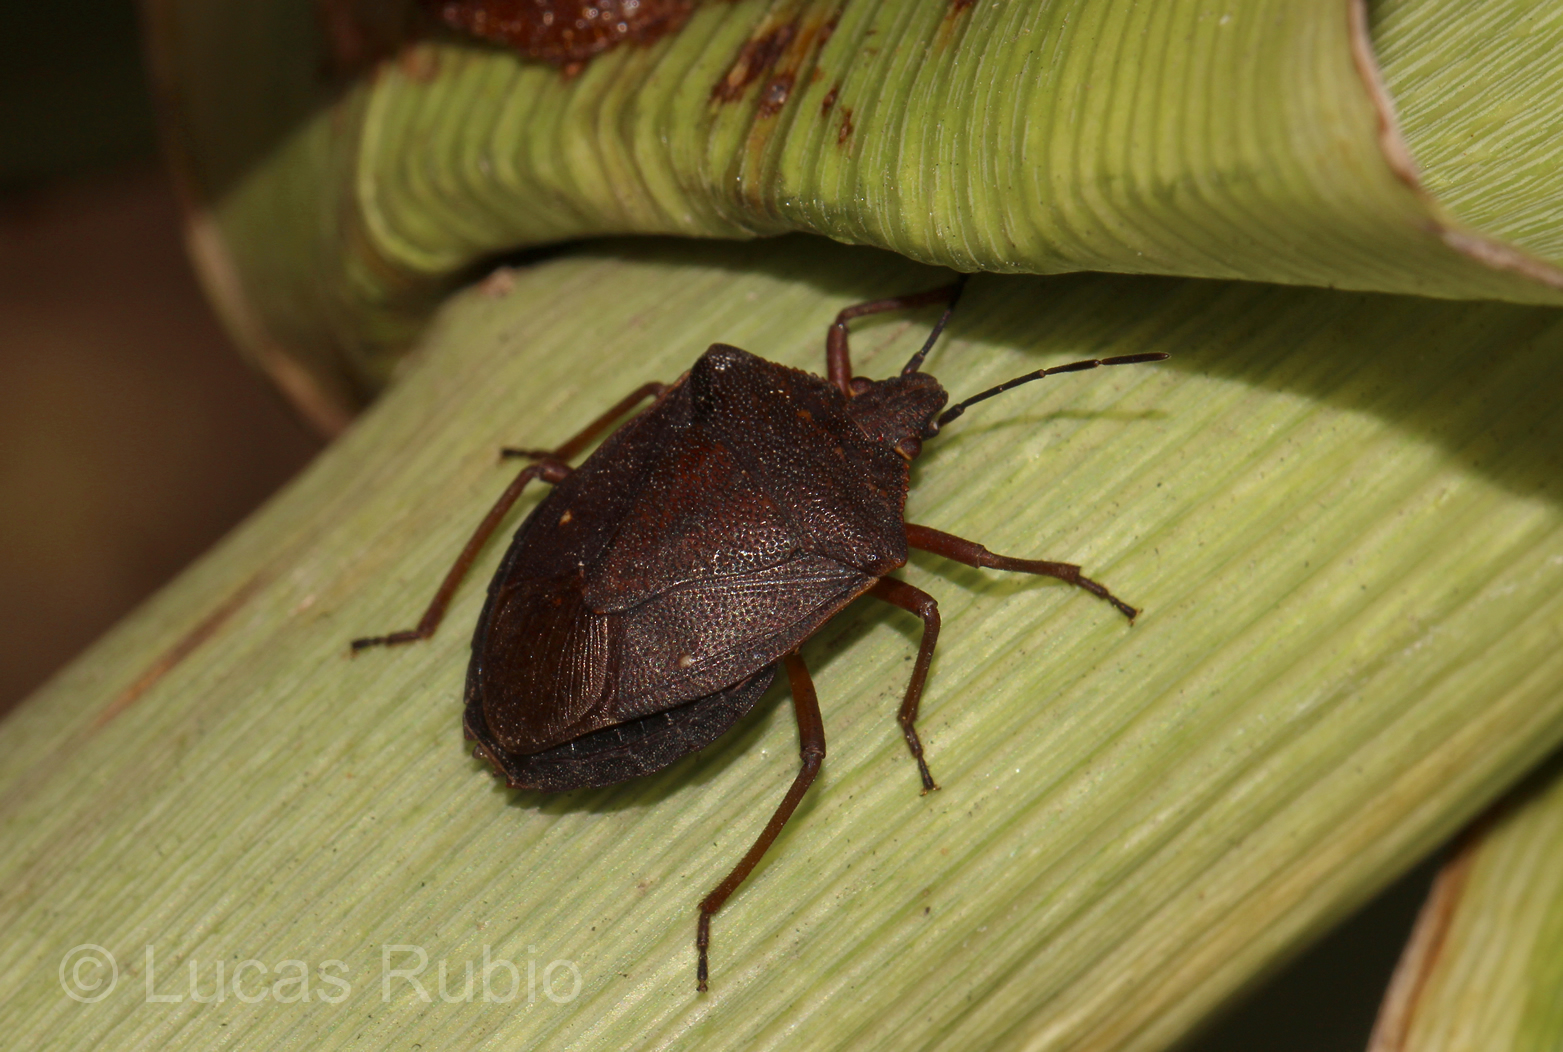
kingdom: Animalia
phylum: Arthropoda
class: Insecta
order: Hemiptera
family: Pentatomidae
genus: Euschistus
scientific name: Euschistus
